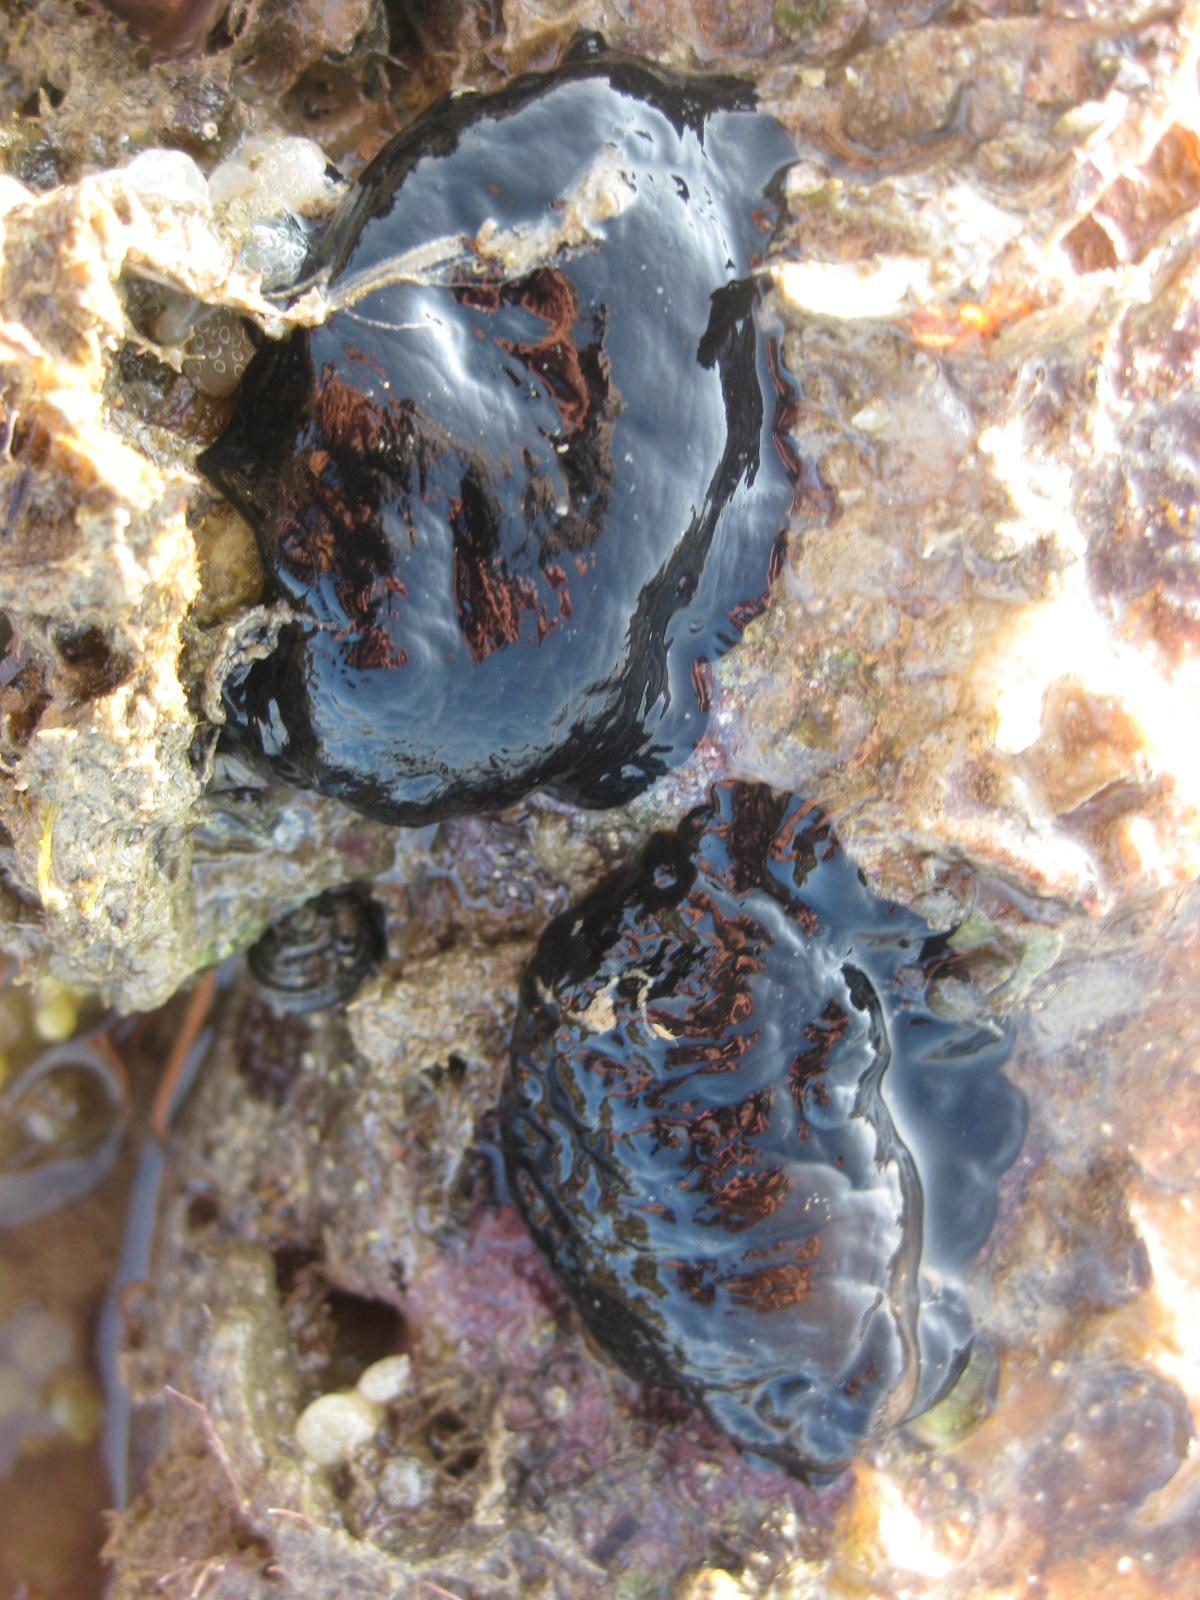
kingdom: Animalia
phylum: Mollusca
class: Gastropoda
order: Nudibranchia
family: Dendrodorididae
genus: Dendrodoris
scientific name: Dendrodoris arborescens
